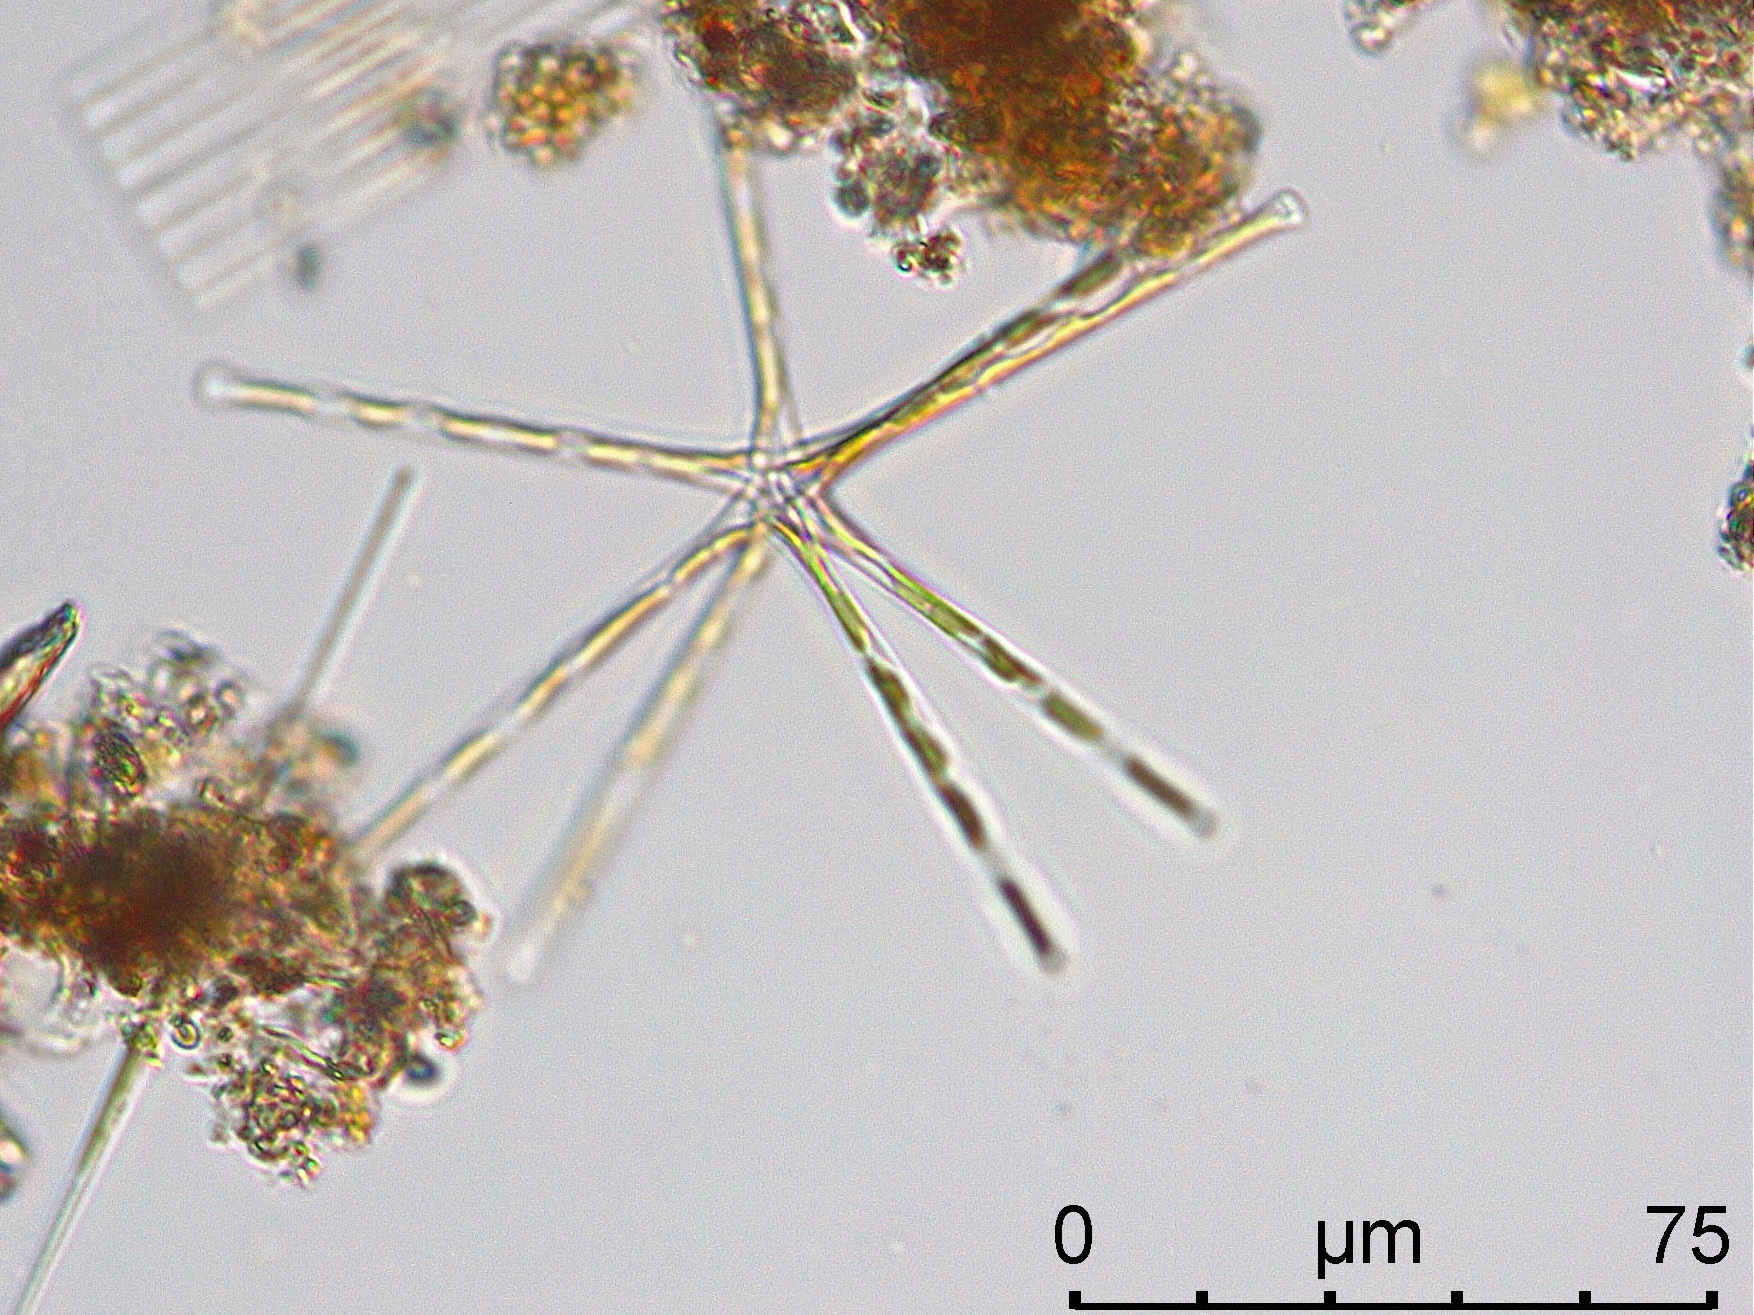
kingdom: Chromista
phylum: Ochrophyta
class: Bacillariophyceae
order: Fragilariales
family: Fragilariaceae
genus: Asterionella
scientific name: Asterionella formosa
